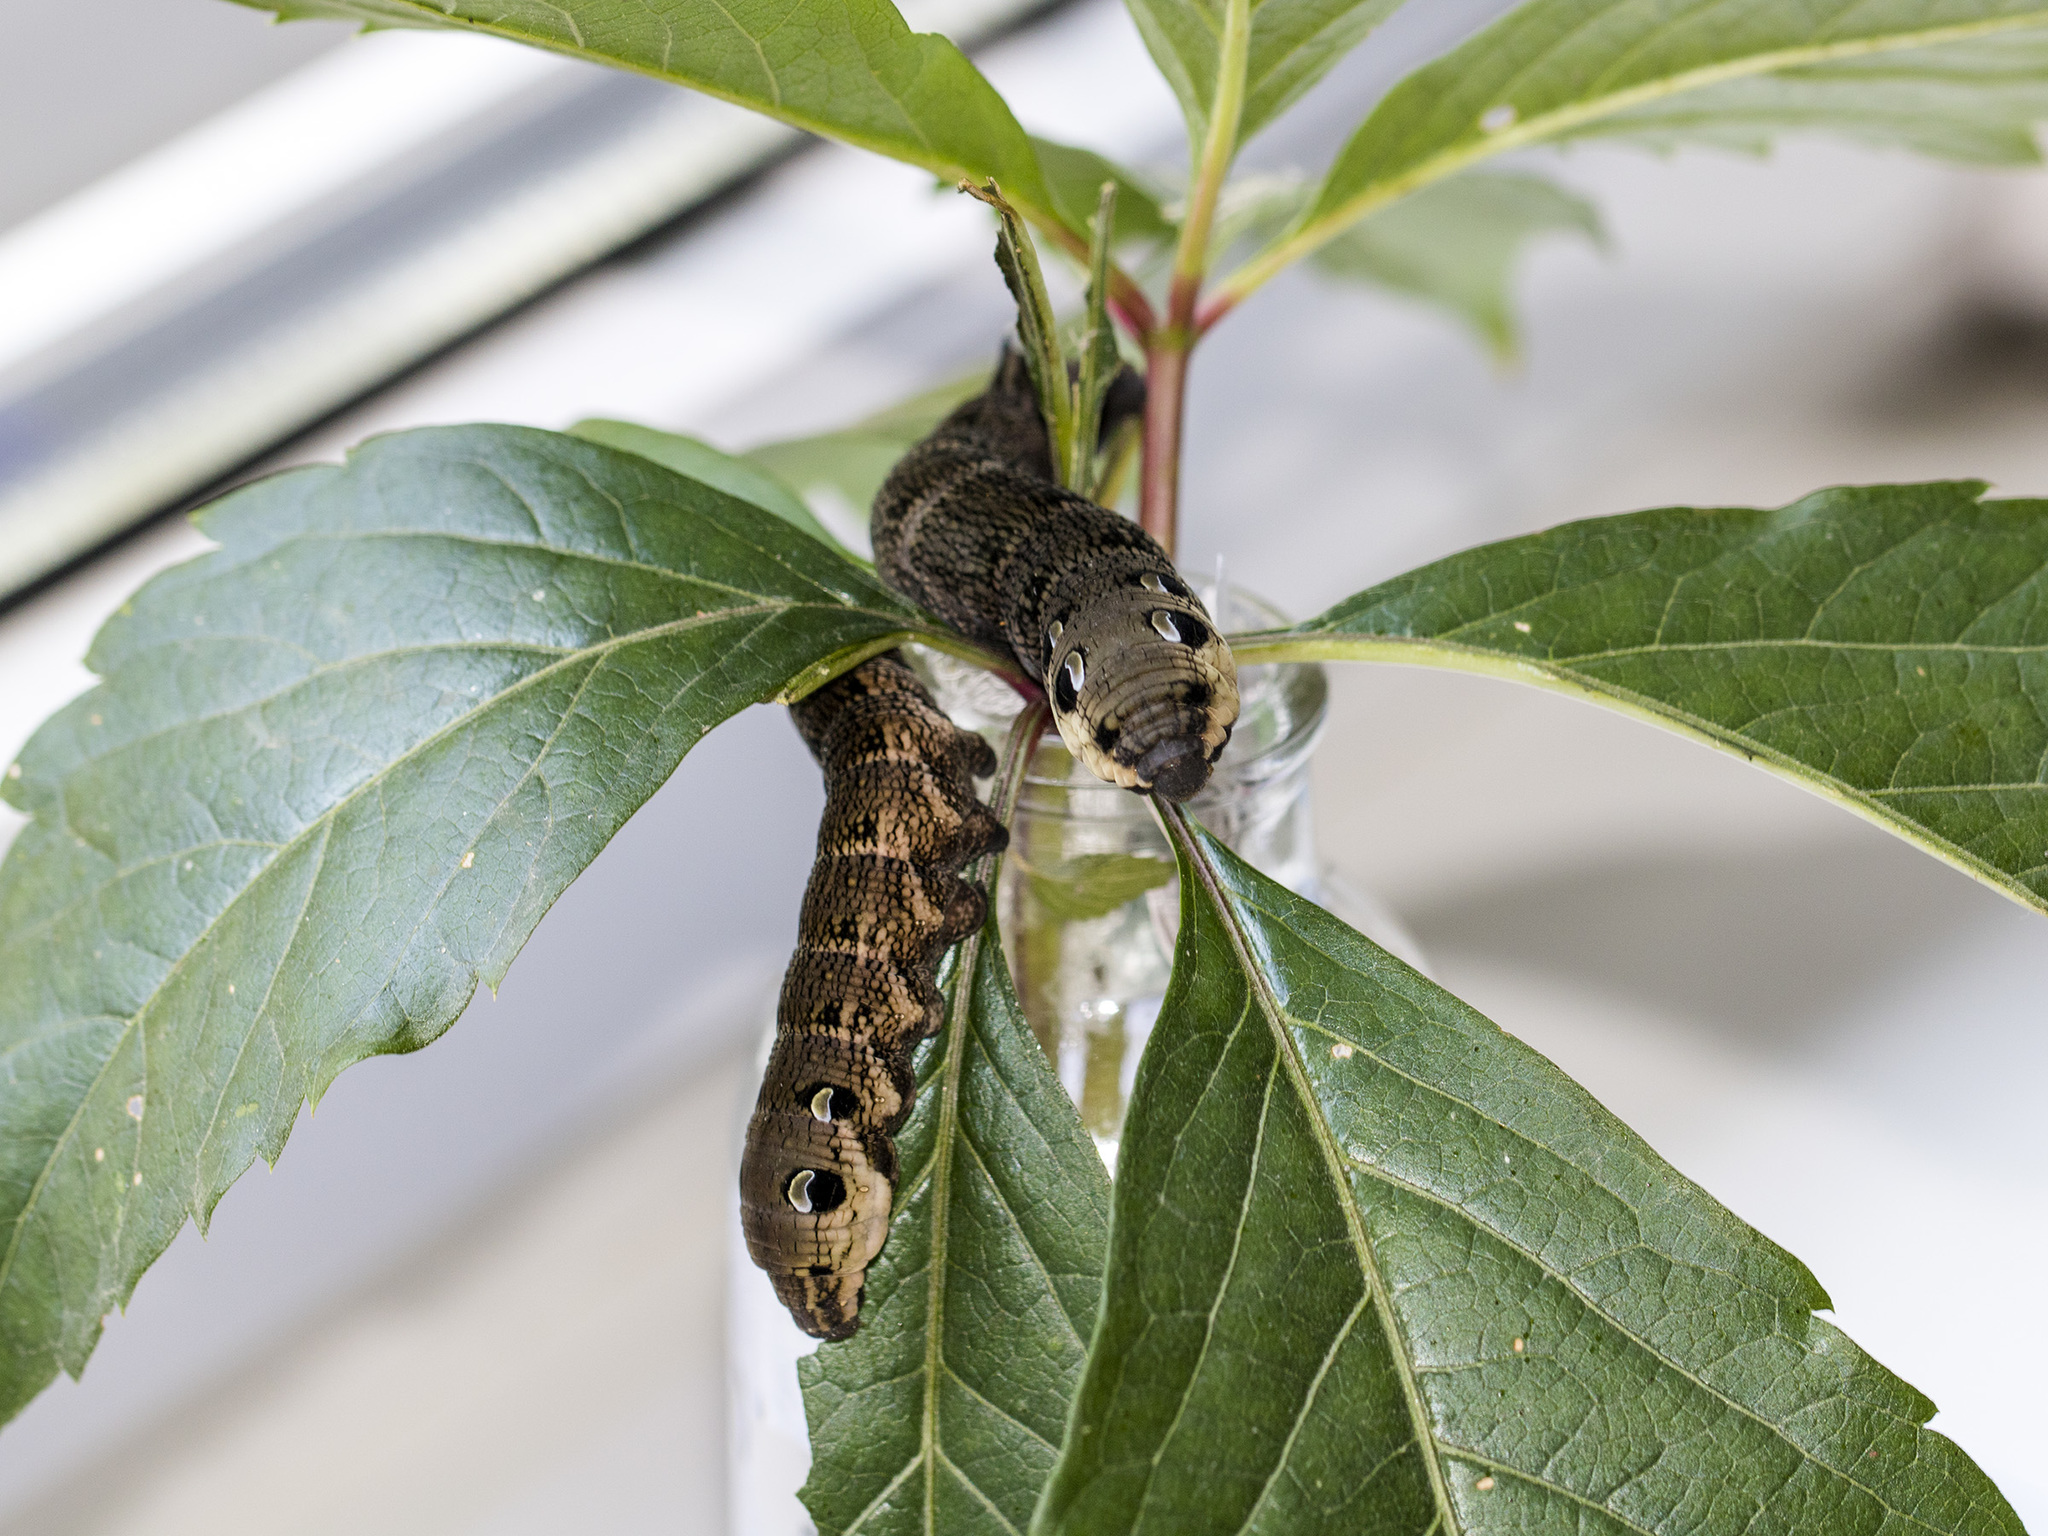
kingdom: Animalia
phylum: Arthropoda
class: Insecta
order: Lepidoptera
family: Sphingidae
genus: Deilephila
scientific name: Deilephila elpenor
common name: Elephant hawk-moth
